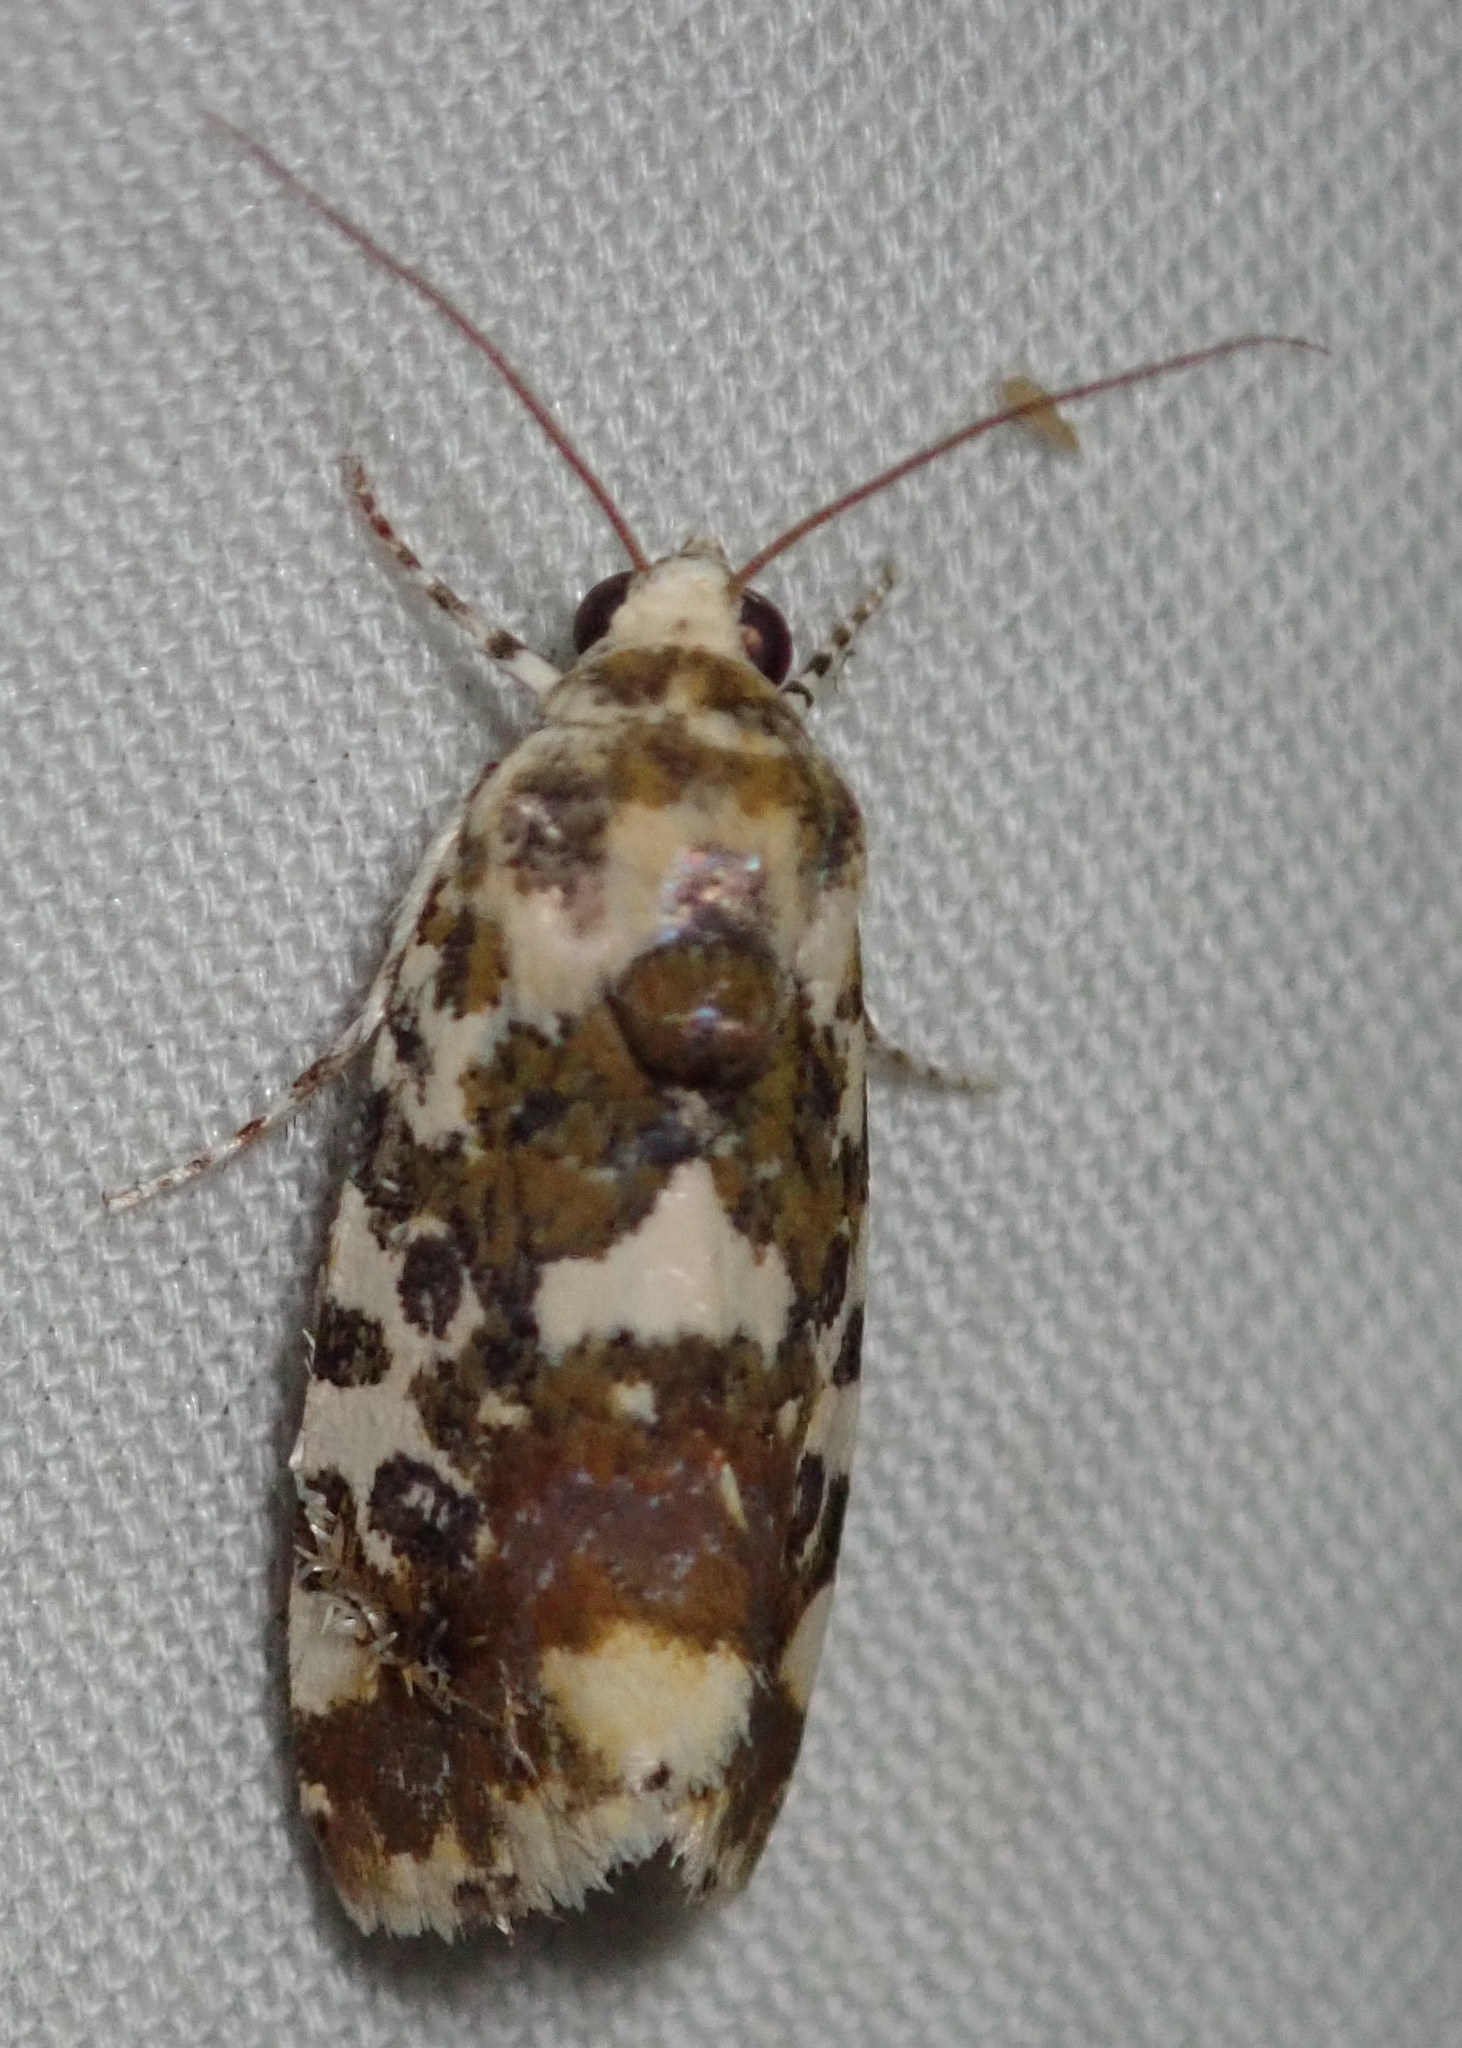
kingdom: Animalia
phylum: Arthropoda
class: Insecta
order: Lepidoptera
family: Noctuidae
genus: Acontia
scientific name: Acontia zelleri
